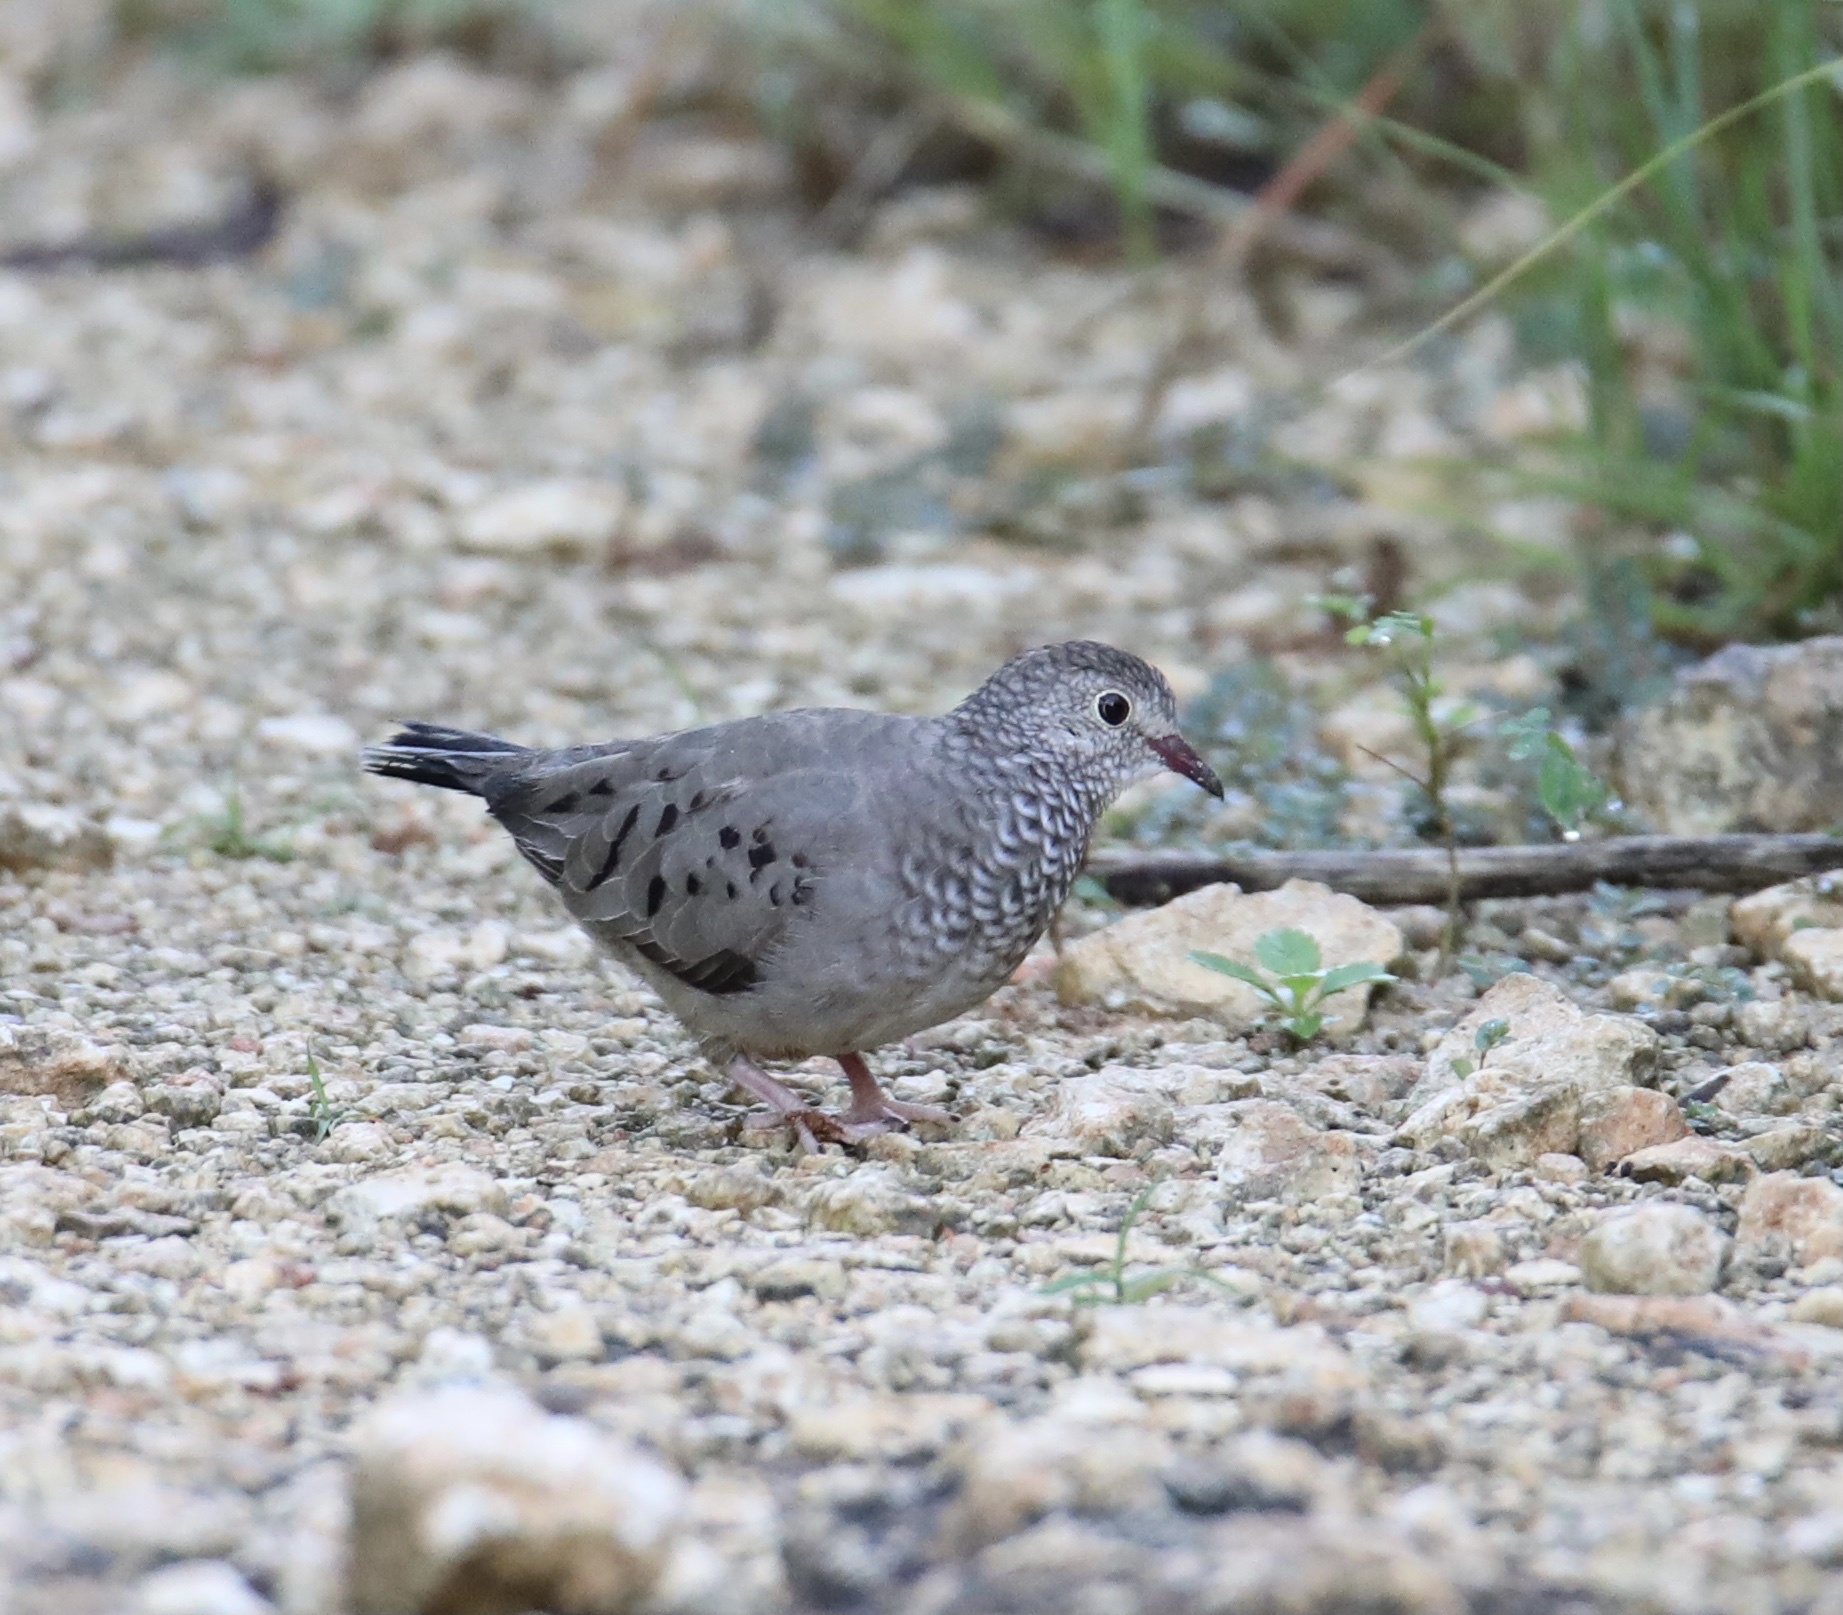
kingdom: Animalia
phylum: Chordata
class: Aves
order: Columbiformes
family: Columbidae
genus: Columbina
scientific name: Columbina passerina
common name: Common ground-dove
